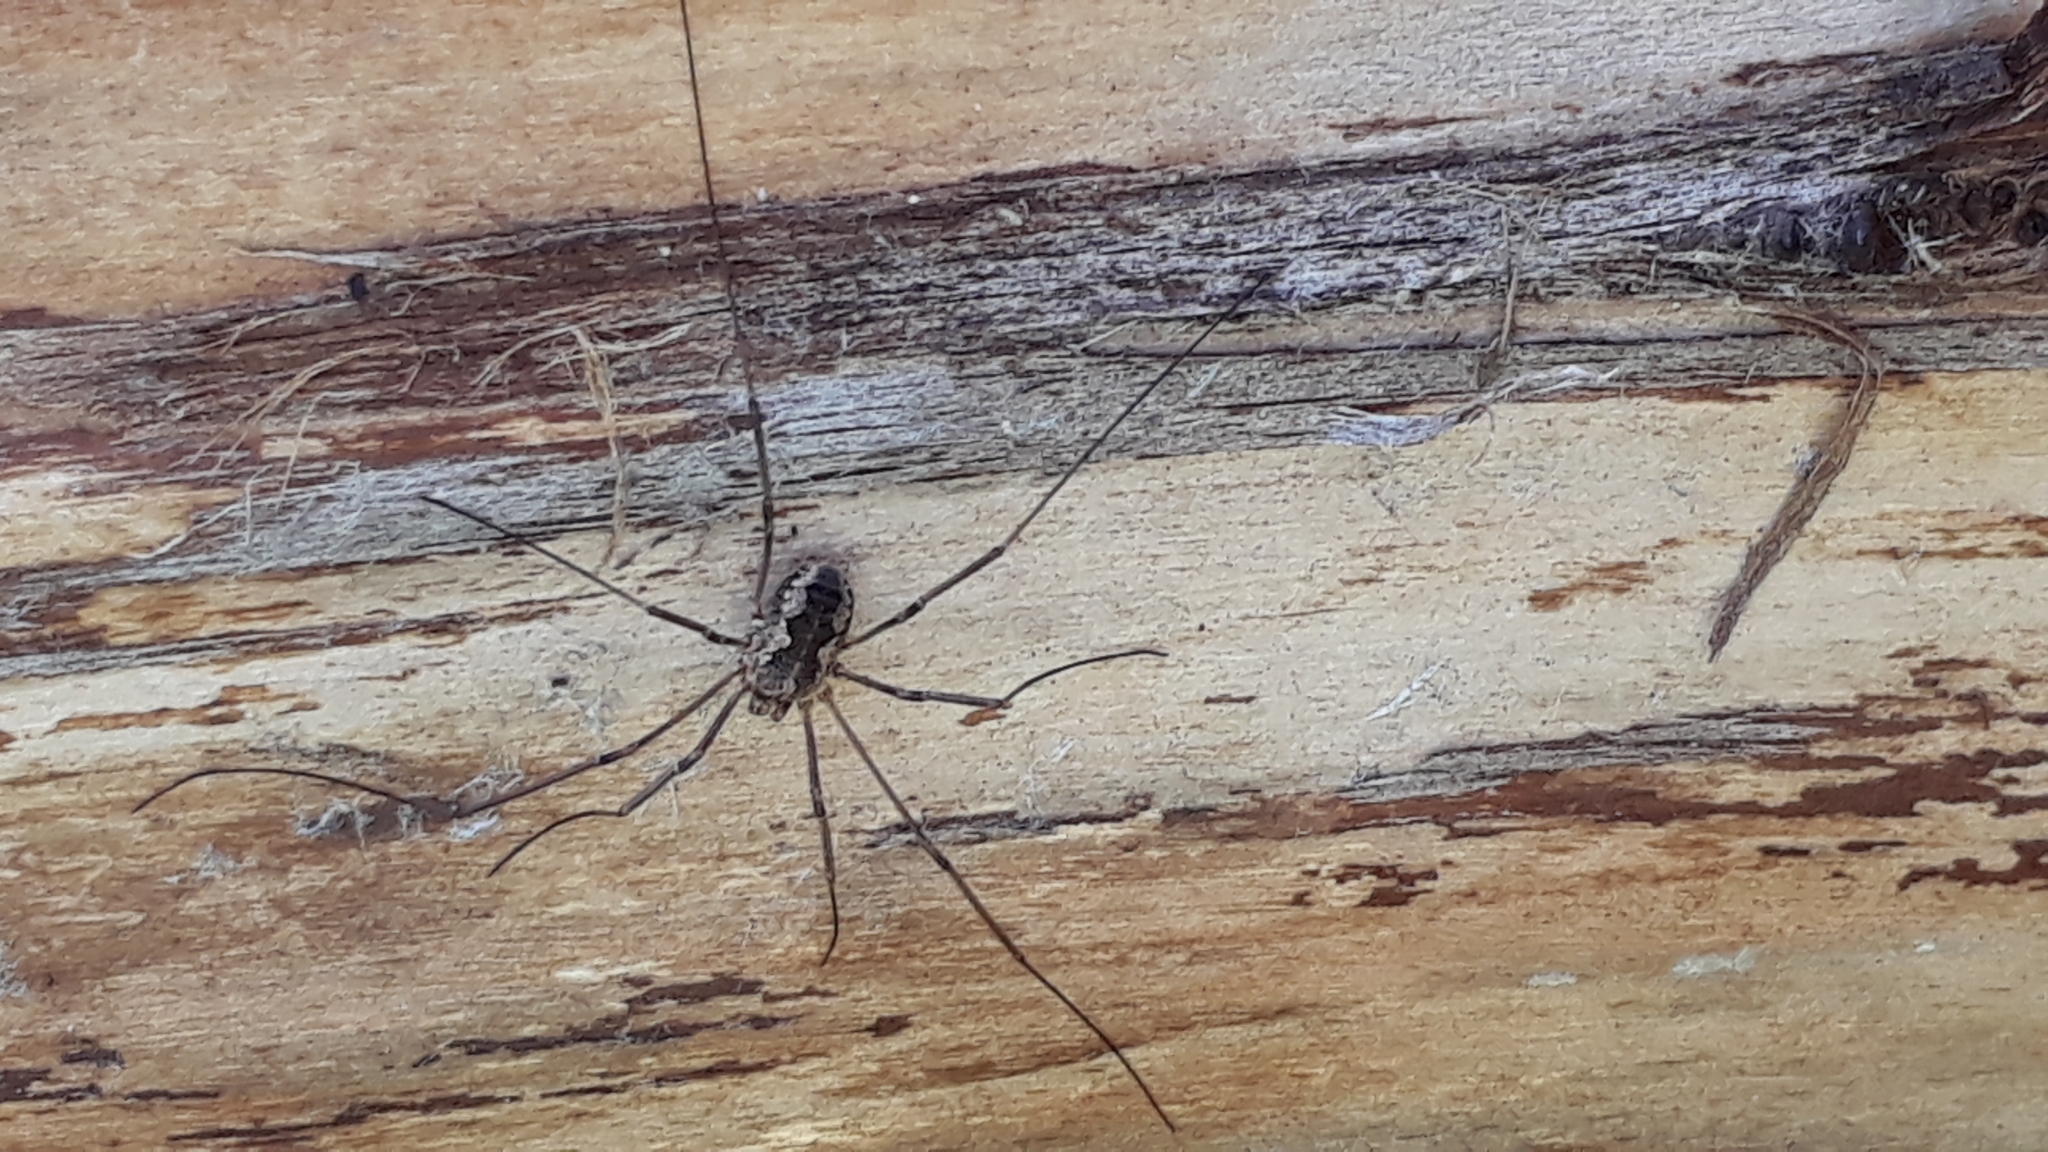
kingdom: Animalia
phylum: Arthropoda
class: Arachnida
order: Opiliones
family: Phalangiidae
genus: Phalangium
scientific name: Phalangium opilio
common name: Daddy longleg
